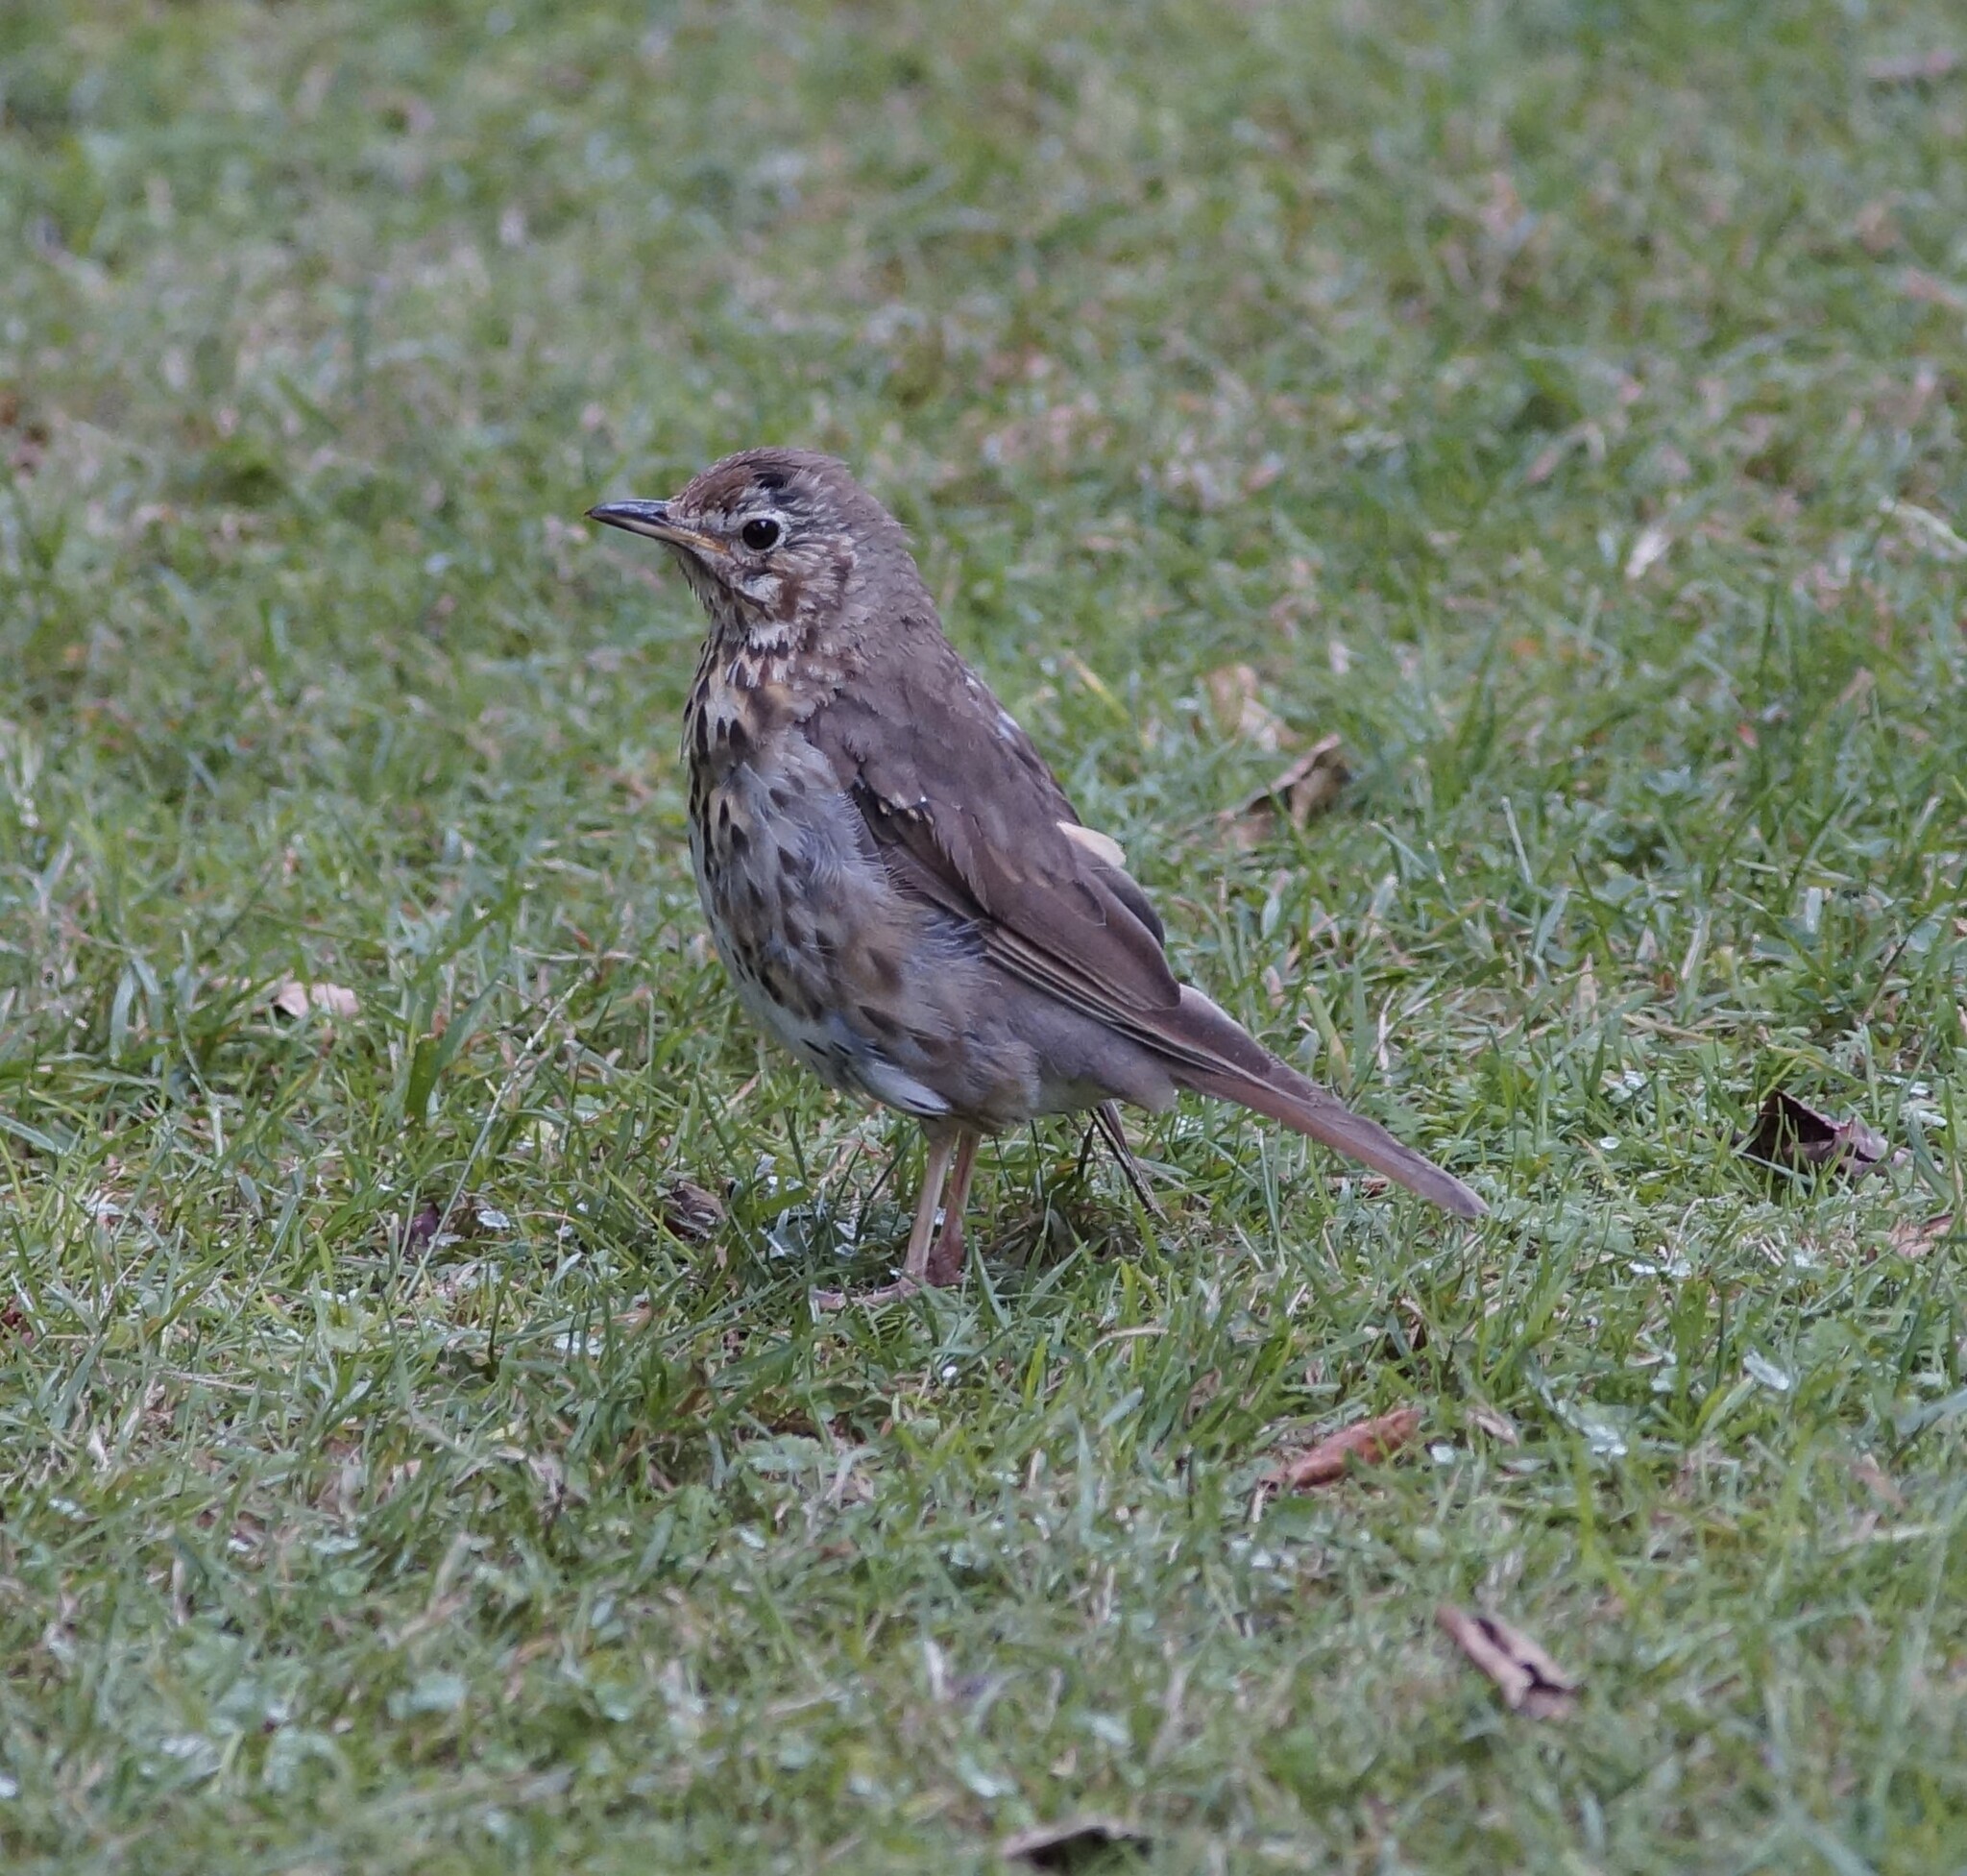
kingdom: Animalia
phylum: Chordata
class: Aves
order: Passeriformes
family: Turdidae
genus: Turdus
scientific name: Turdus philomelos
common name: Song thrush
